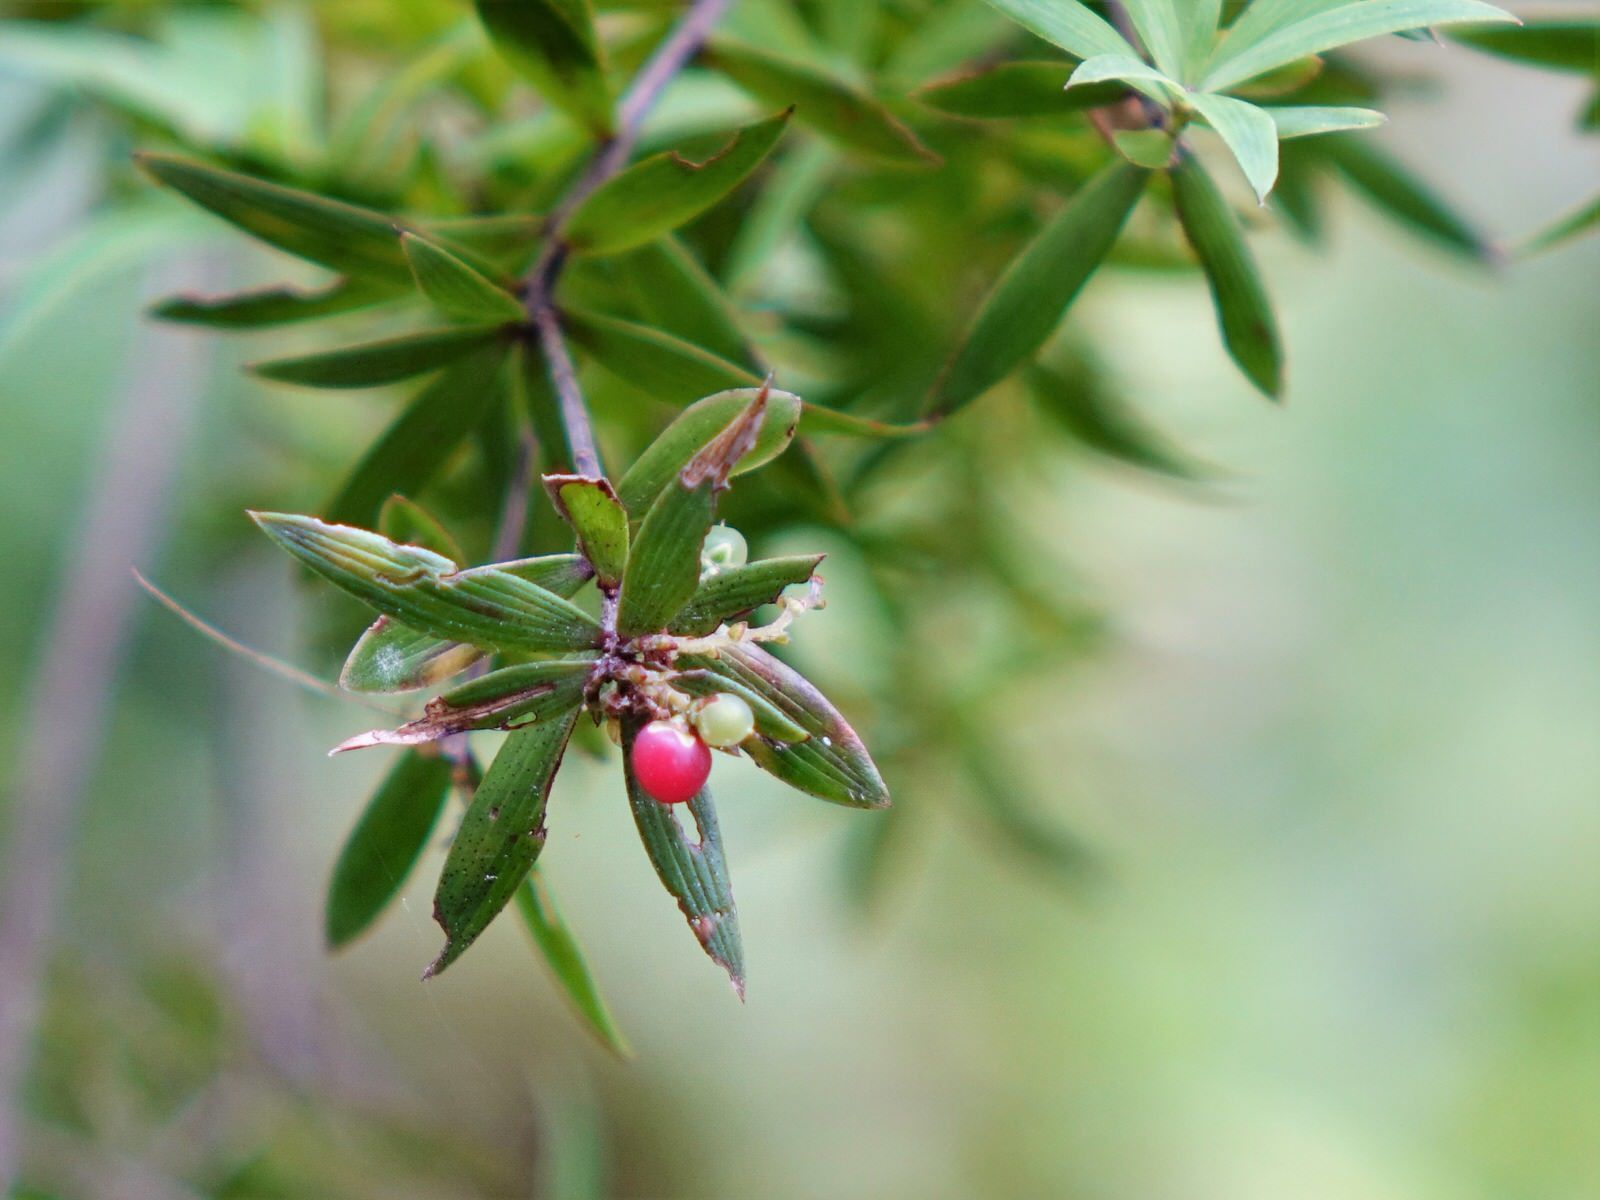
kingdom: Plantae
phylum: Tracheophyta
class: Magnoliopsida
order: Ericales
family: Ericaceae
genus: Leucopogon
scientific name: Leucopogon fasciculatus
